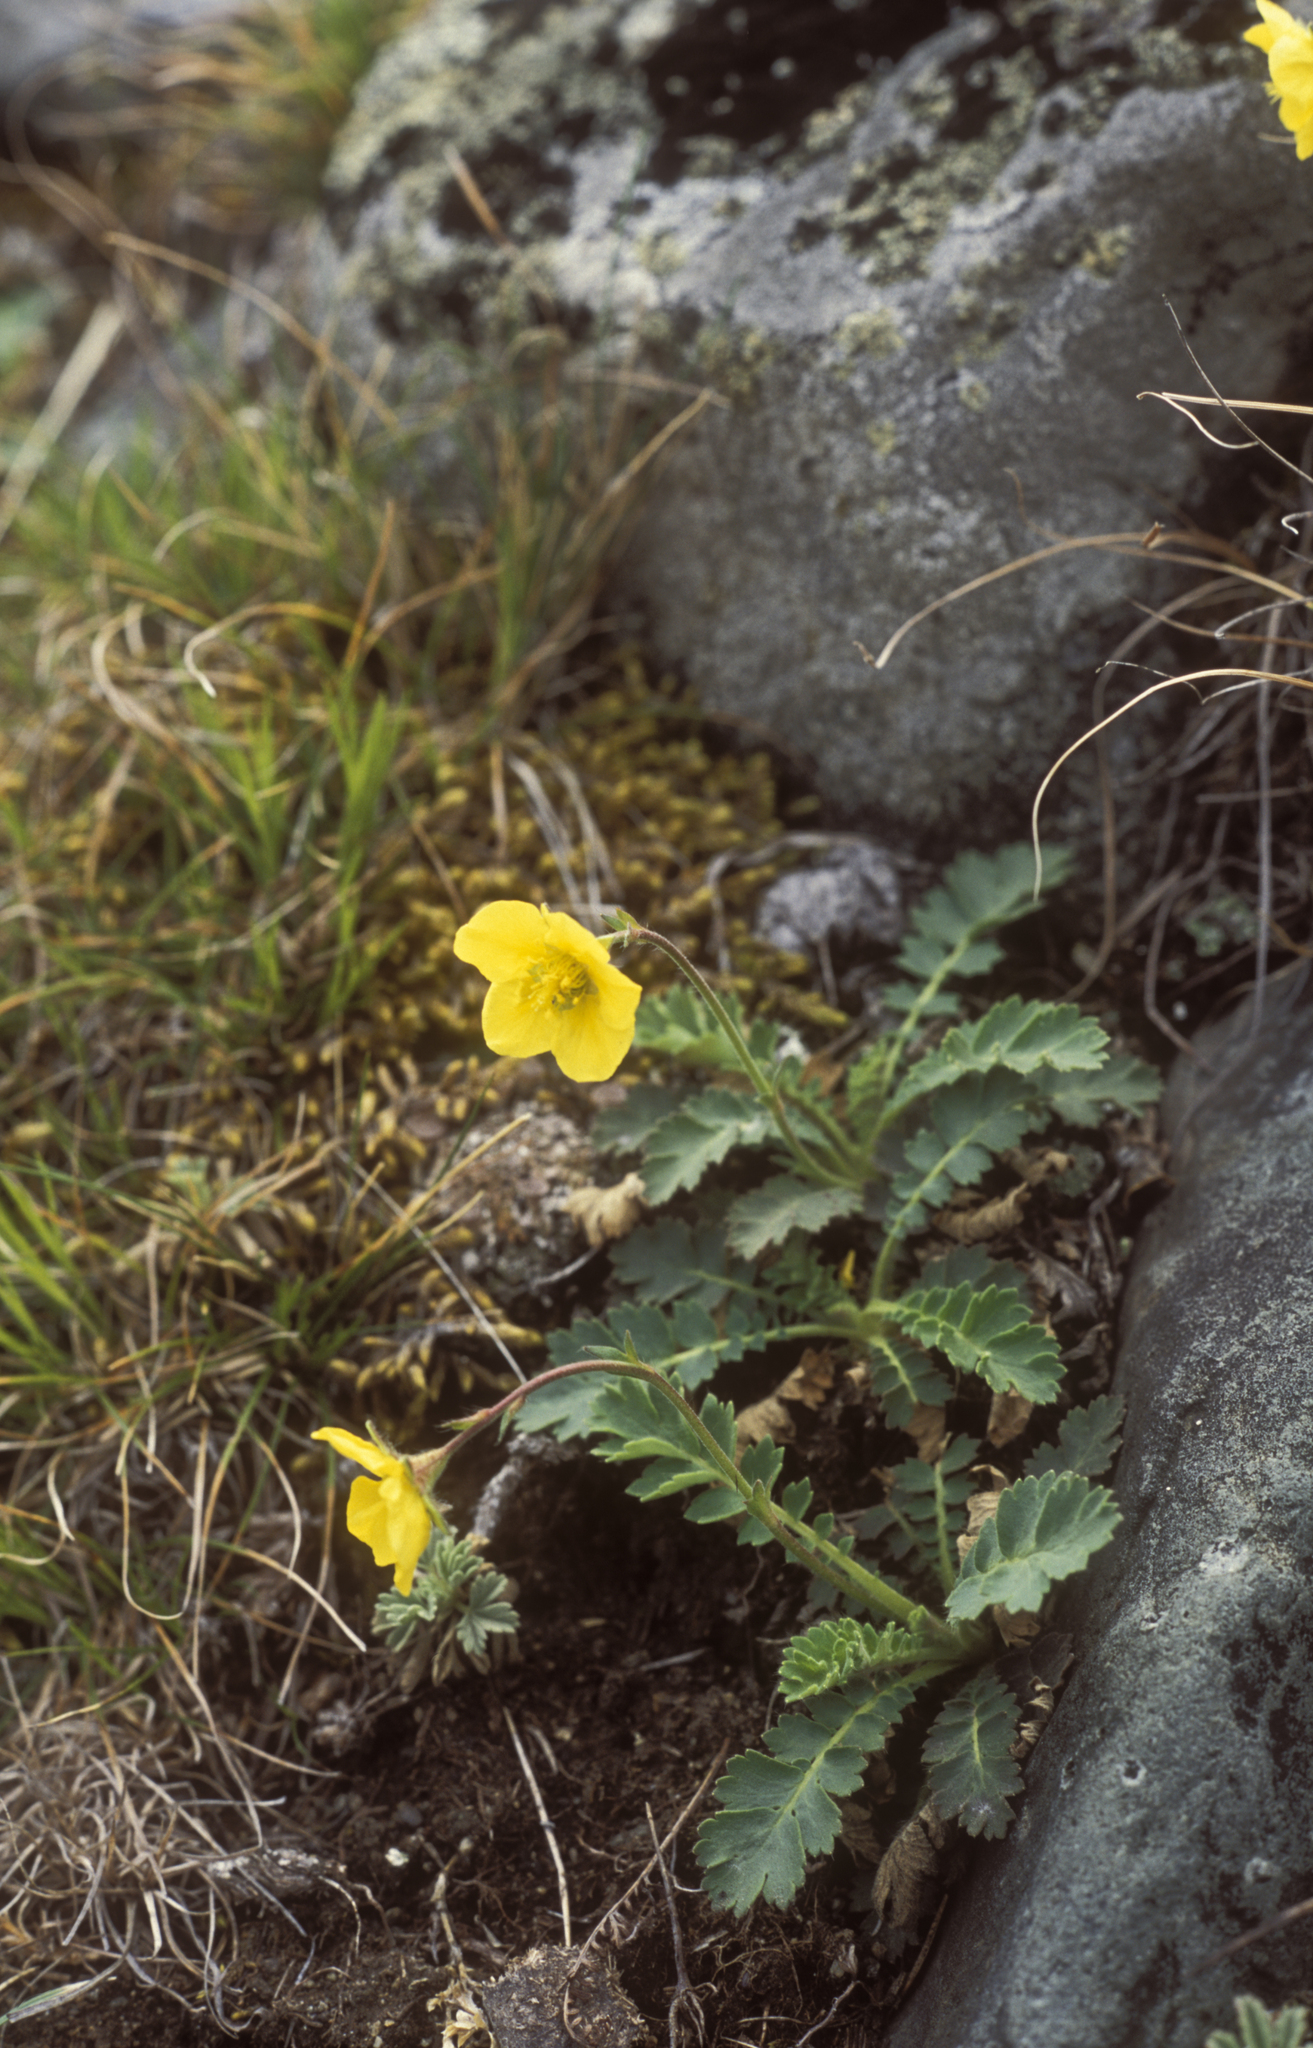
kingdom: Plantae
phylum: Tracheophyta
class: Magnoliopsida
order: Rosales
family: Rosaceae
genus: Geum
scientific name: Geum geoides
